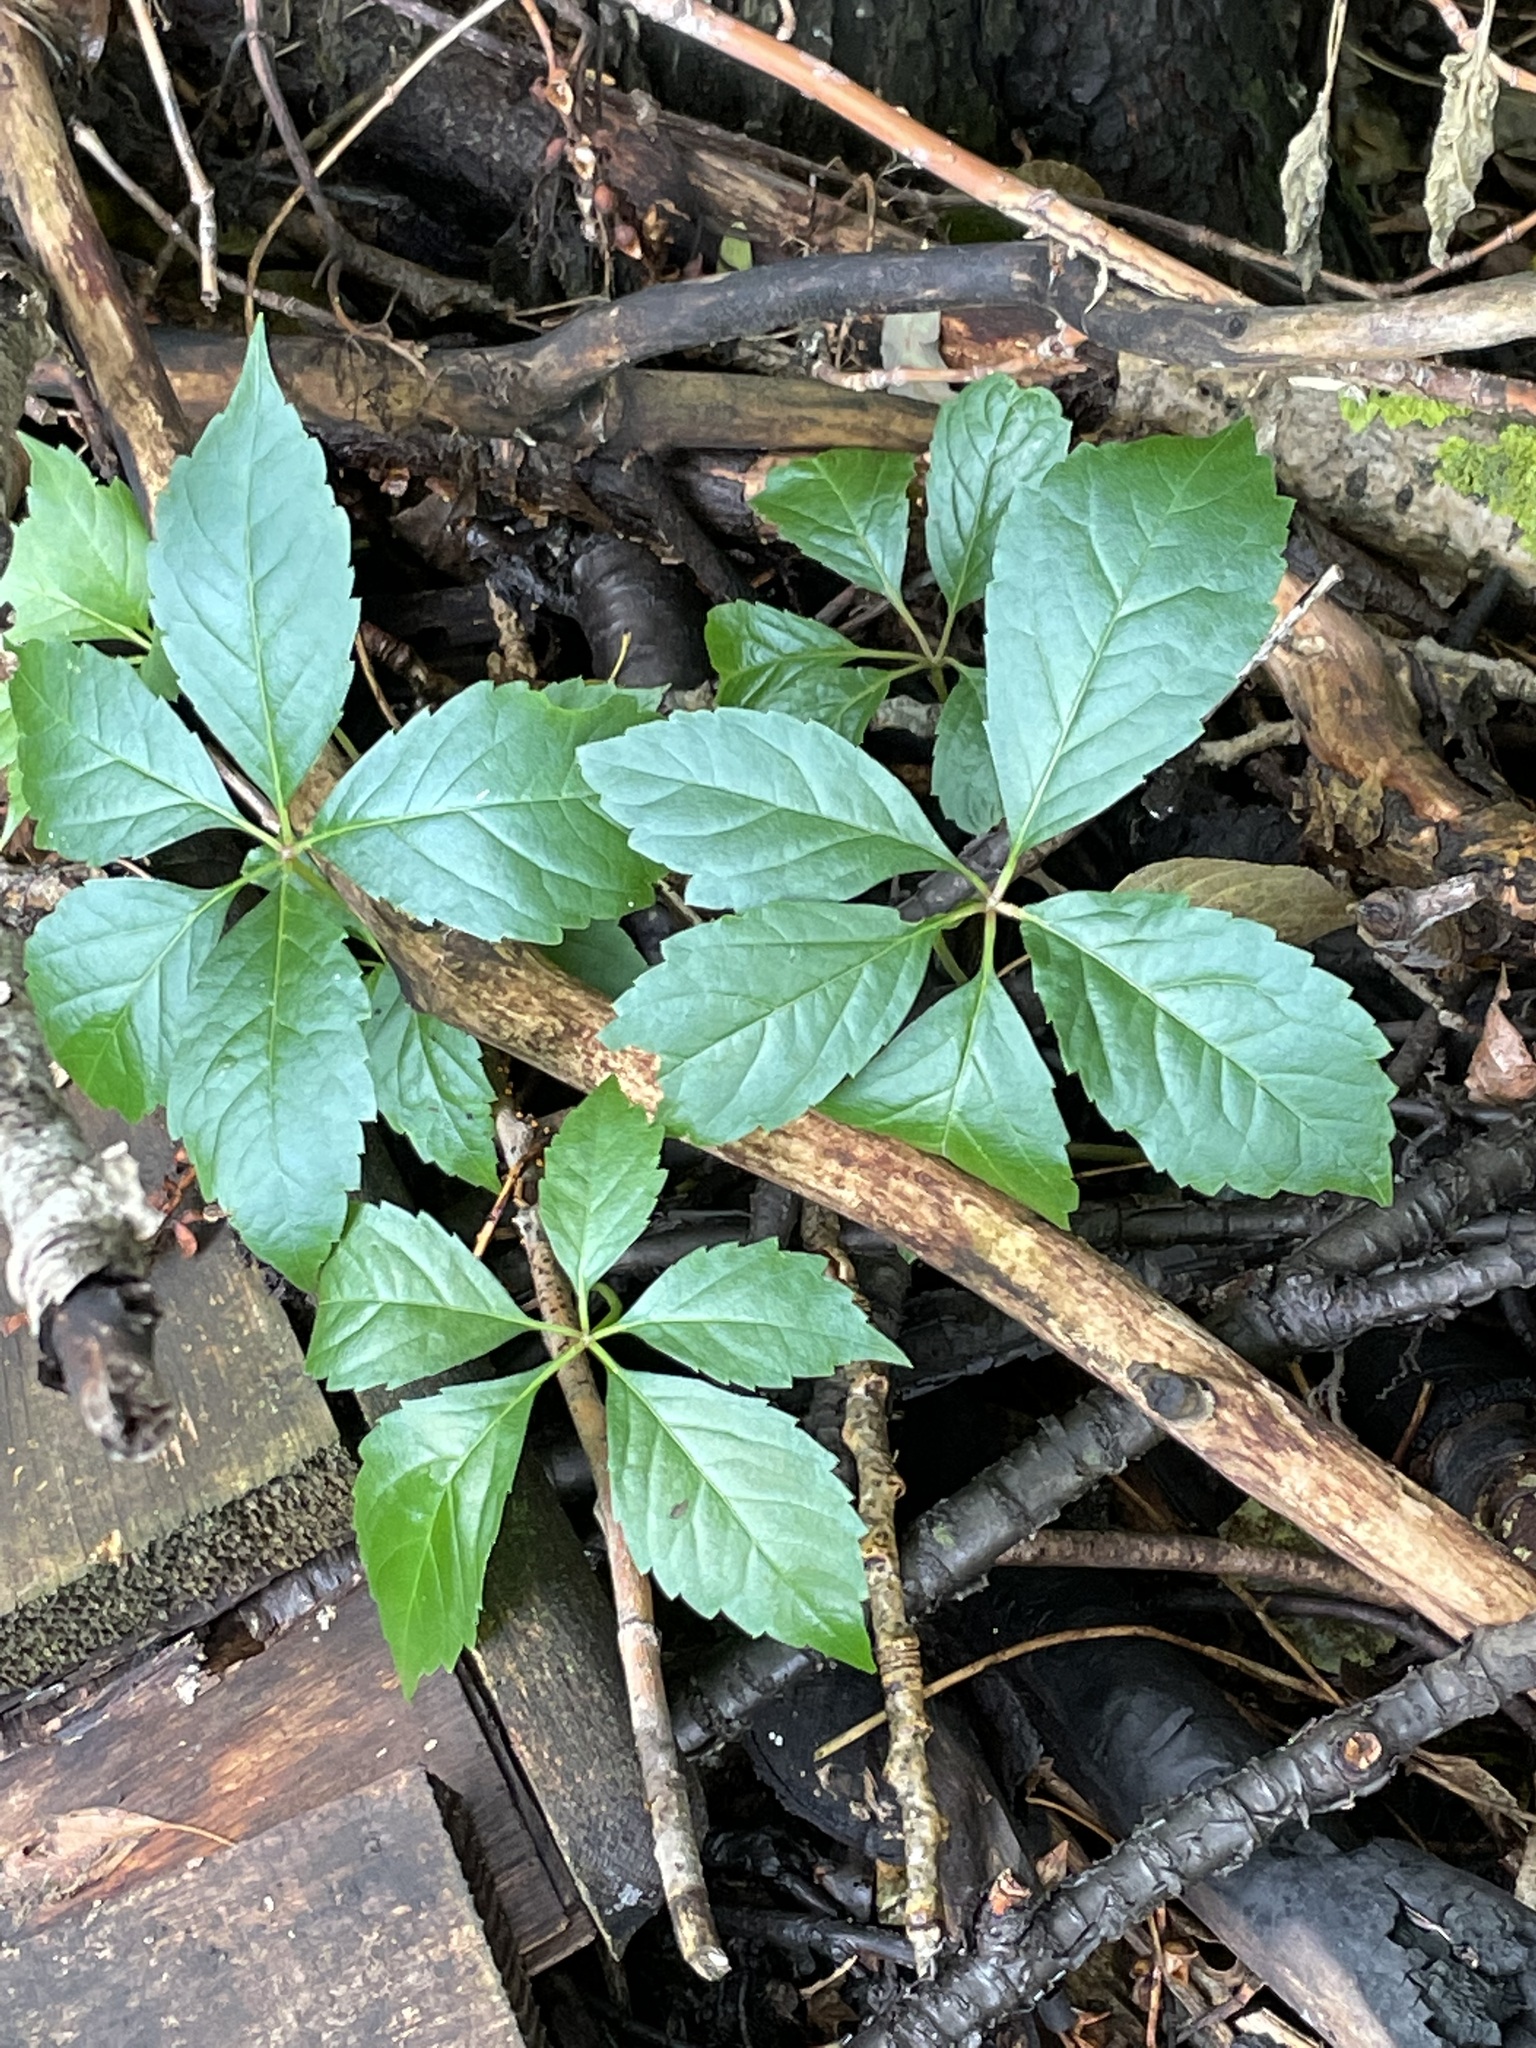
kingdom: Plantae
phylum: Tracheophyta
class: Magnoliopsida
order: Vitales
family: Vitaceae
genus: Parthenocissus
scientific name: Parthenocissus inserta
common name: False virginia-creeper
